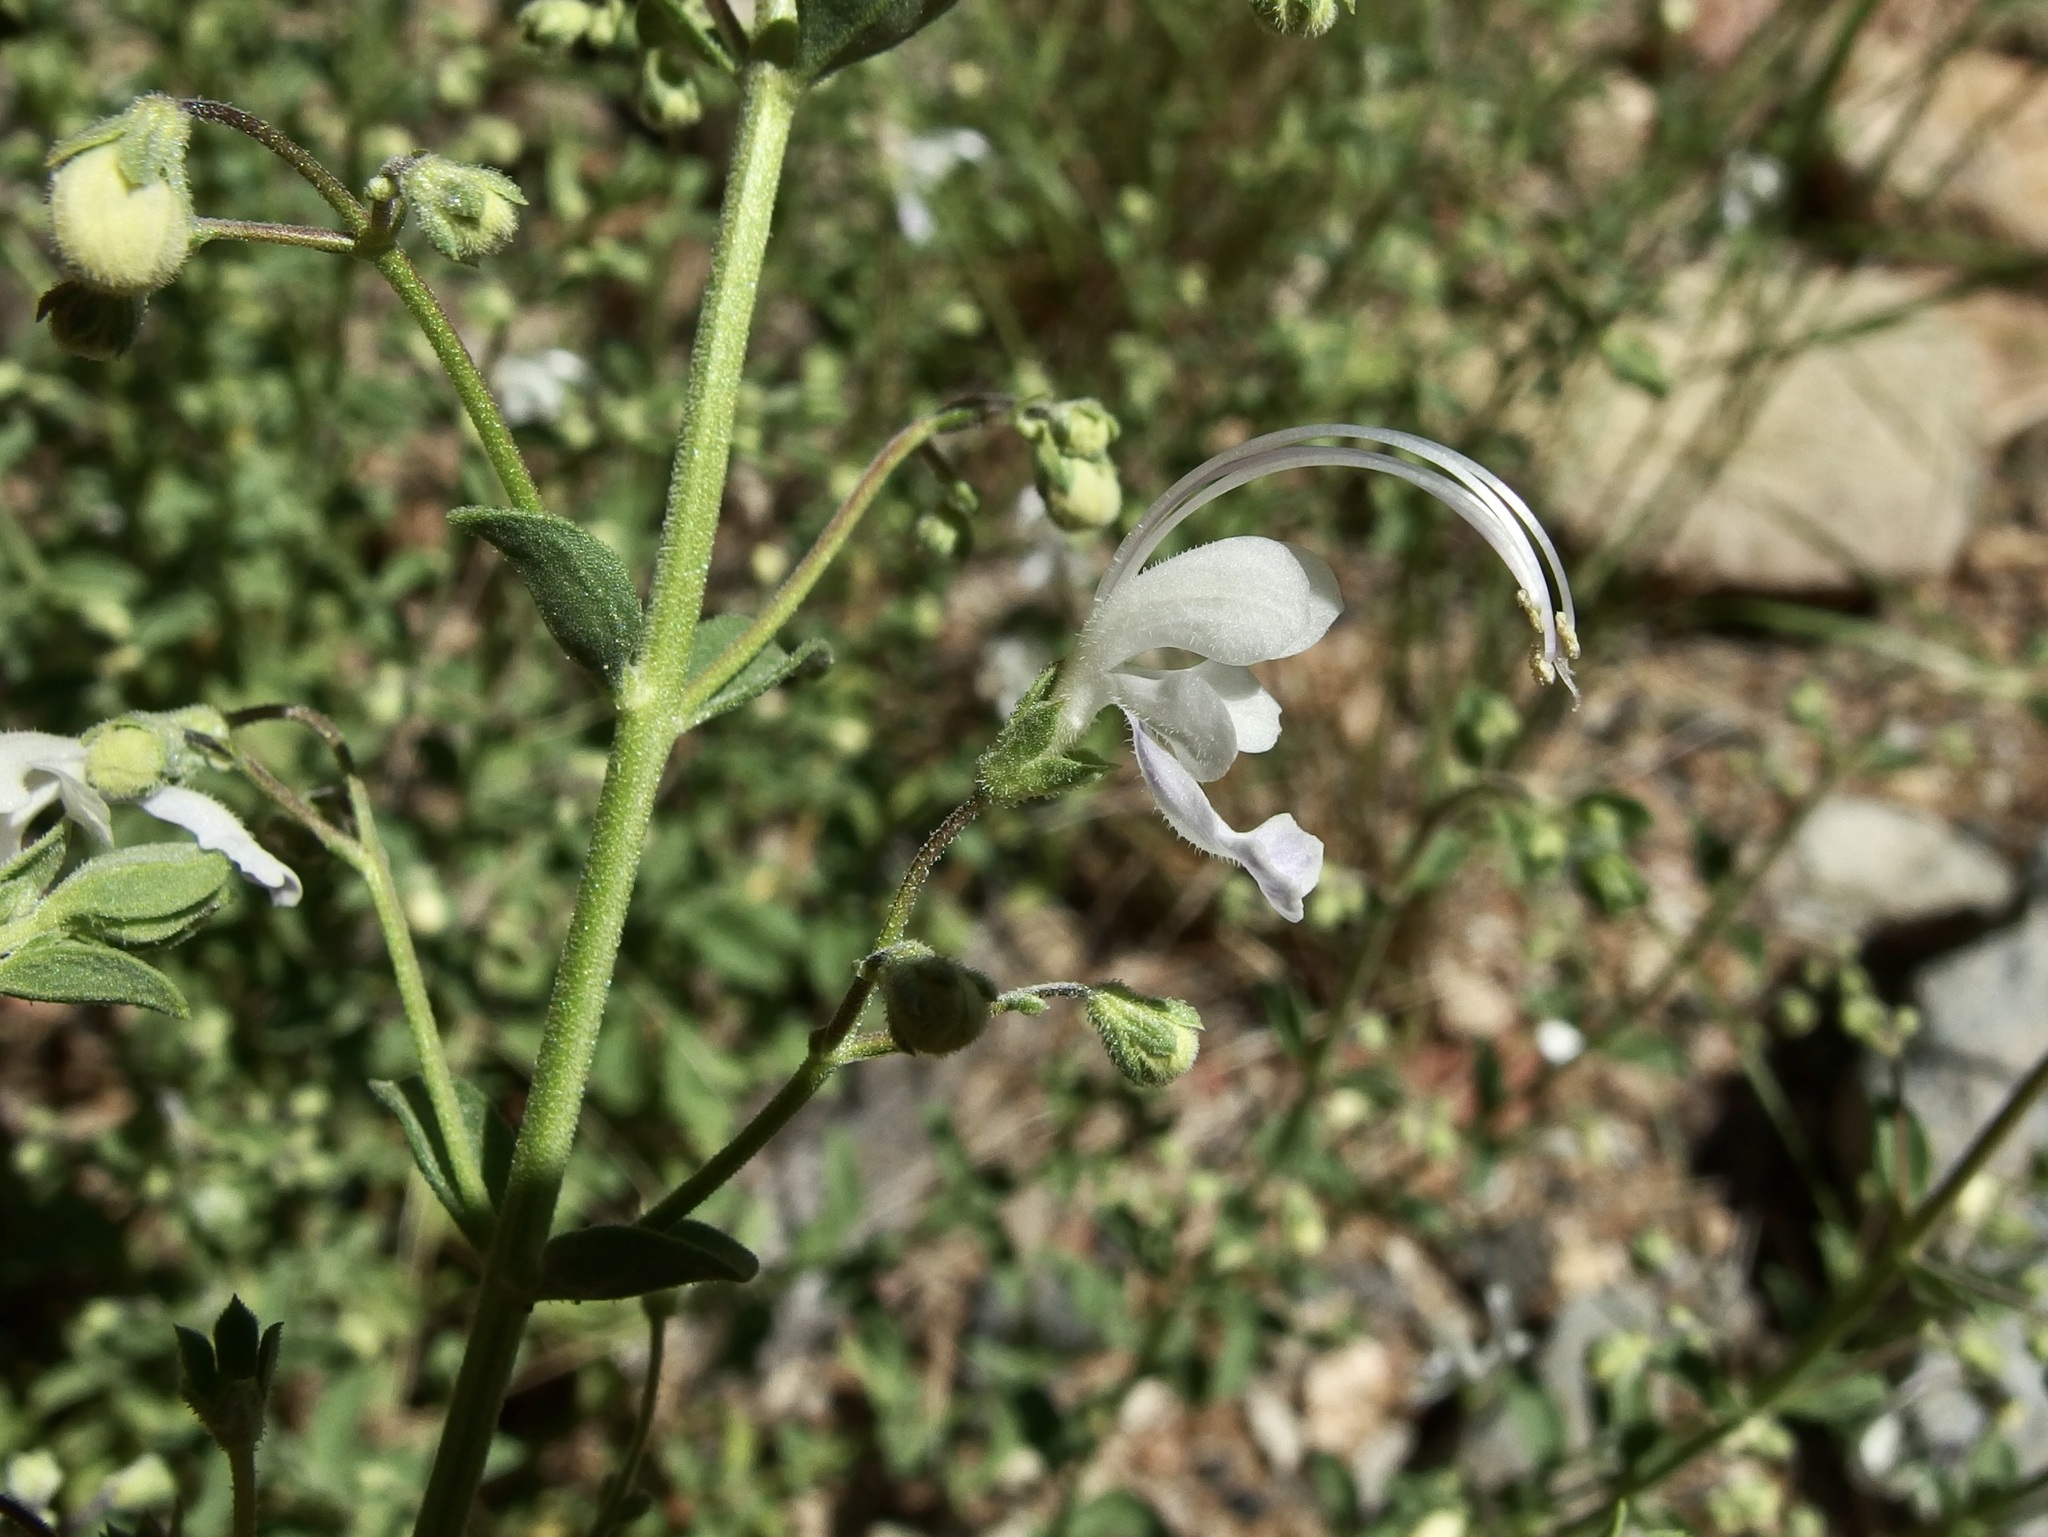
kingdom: Plantae
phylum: Tracheophyta
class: Magnoliopsida
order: Lamiales
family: Lamiaceae
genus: Trichostema
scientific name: Trichostema arizonicum
